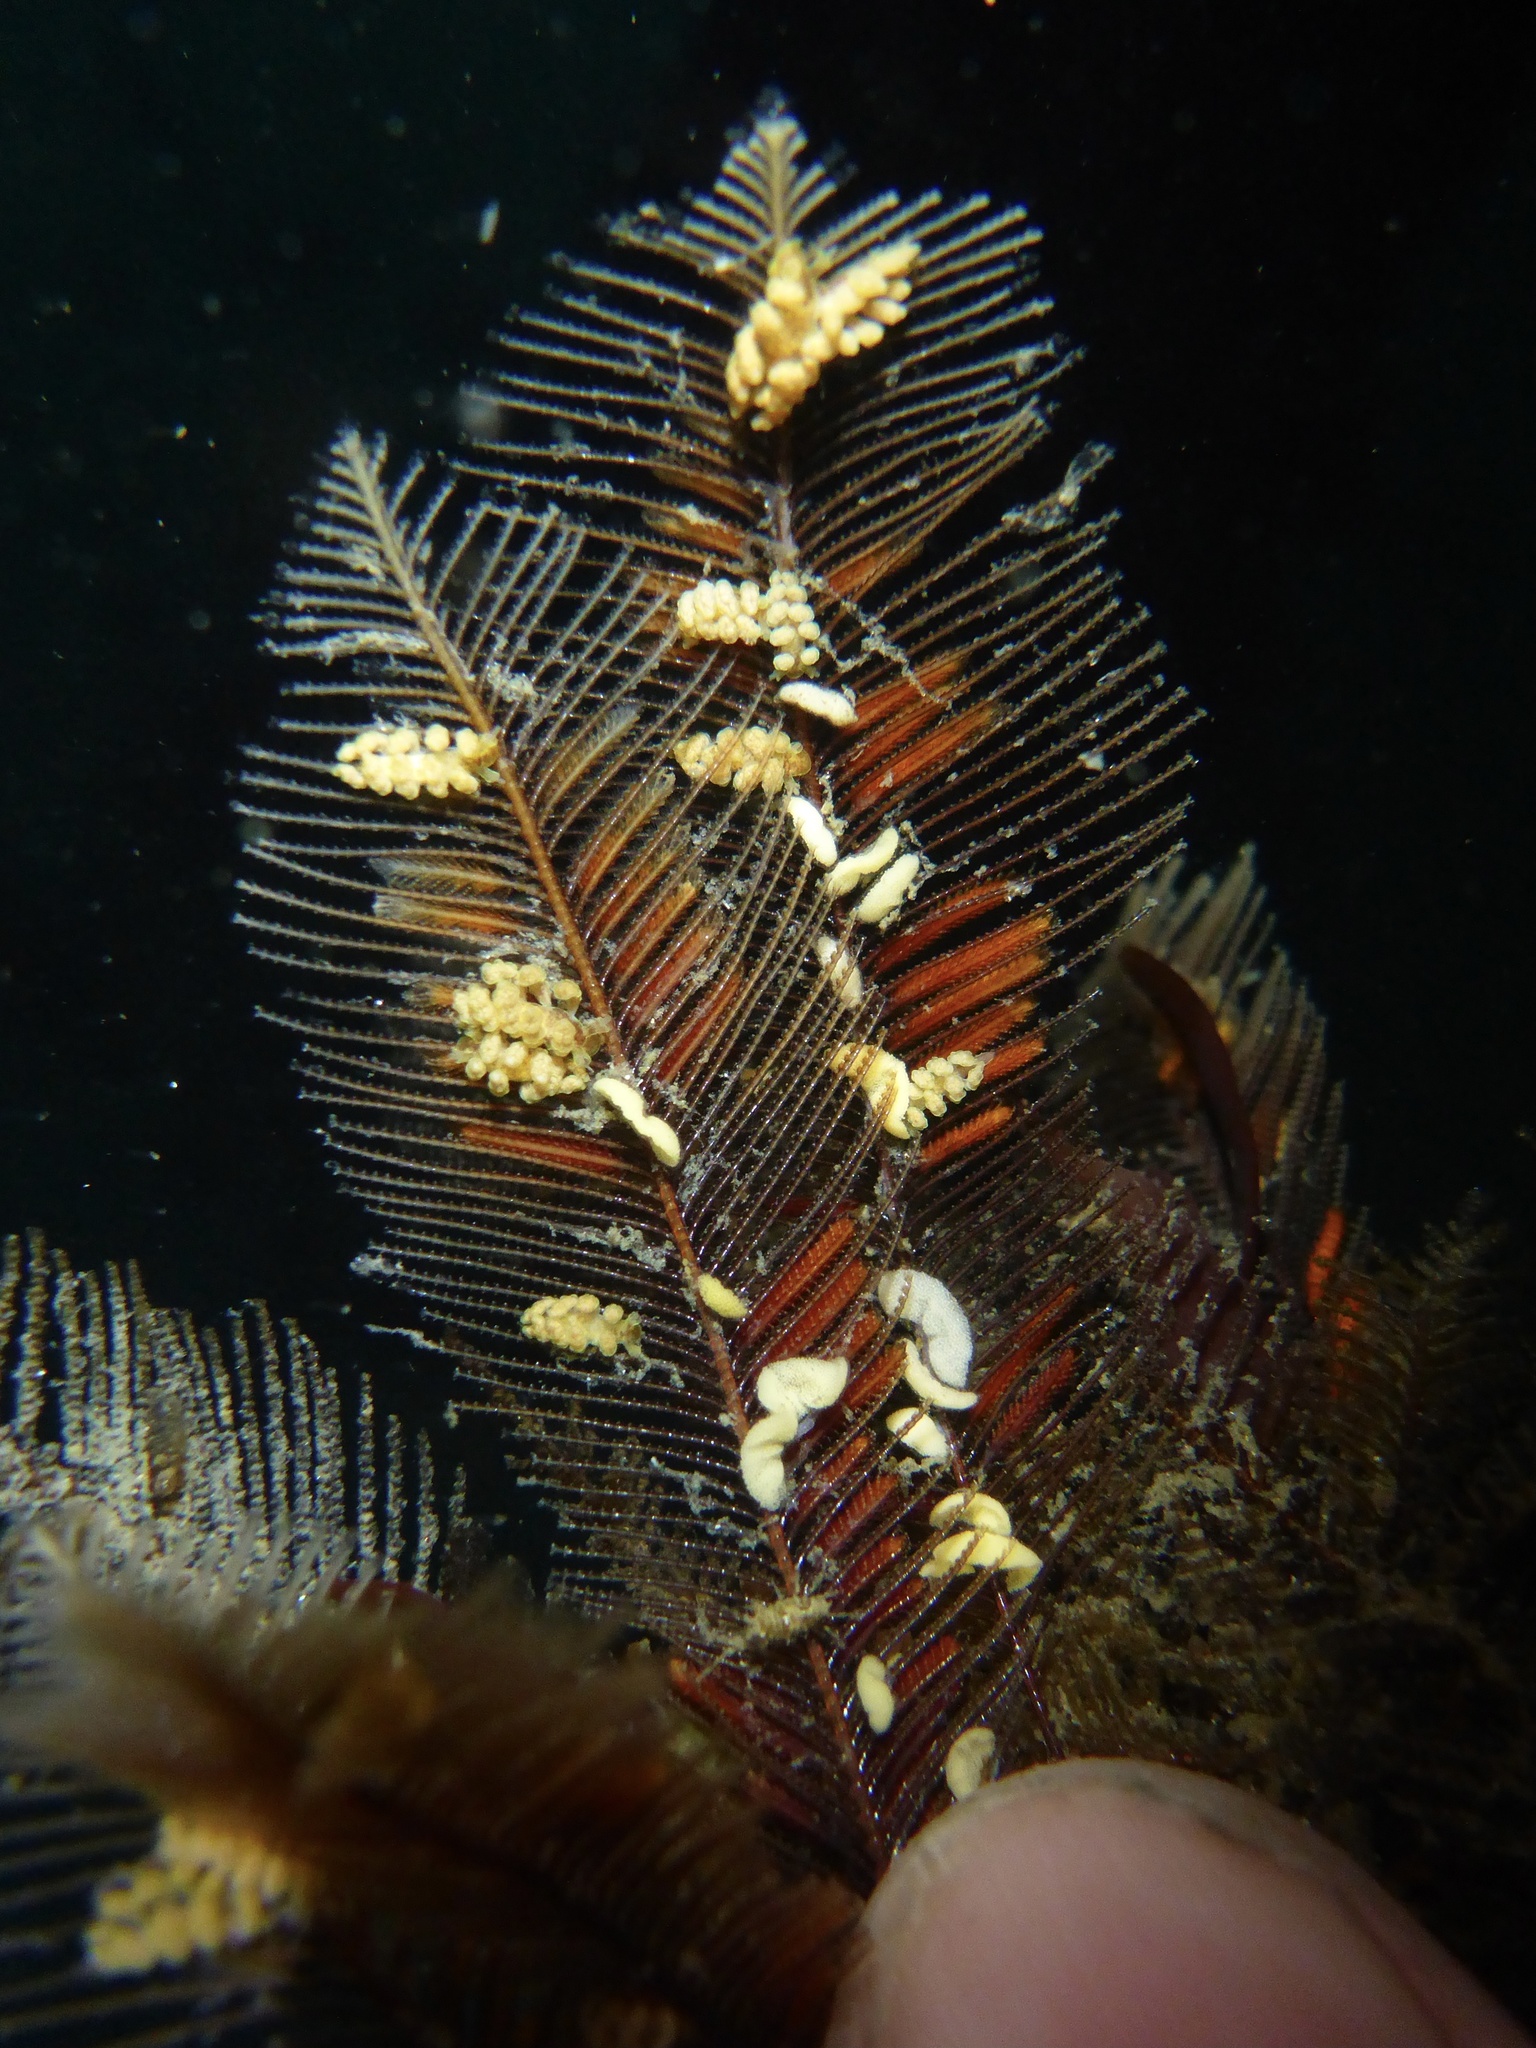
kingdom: Animalia
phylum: Mollusca
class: Gastropoda
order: Nudibranchia
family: Dotidae
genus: Doto
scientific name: Doto columbiana
